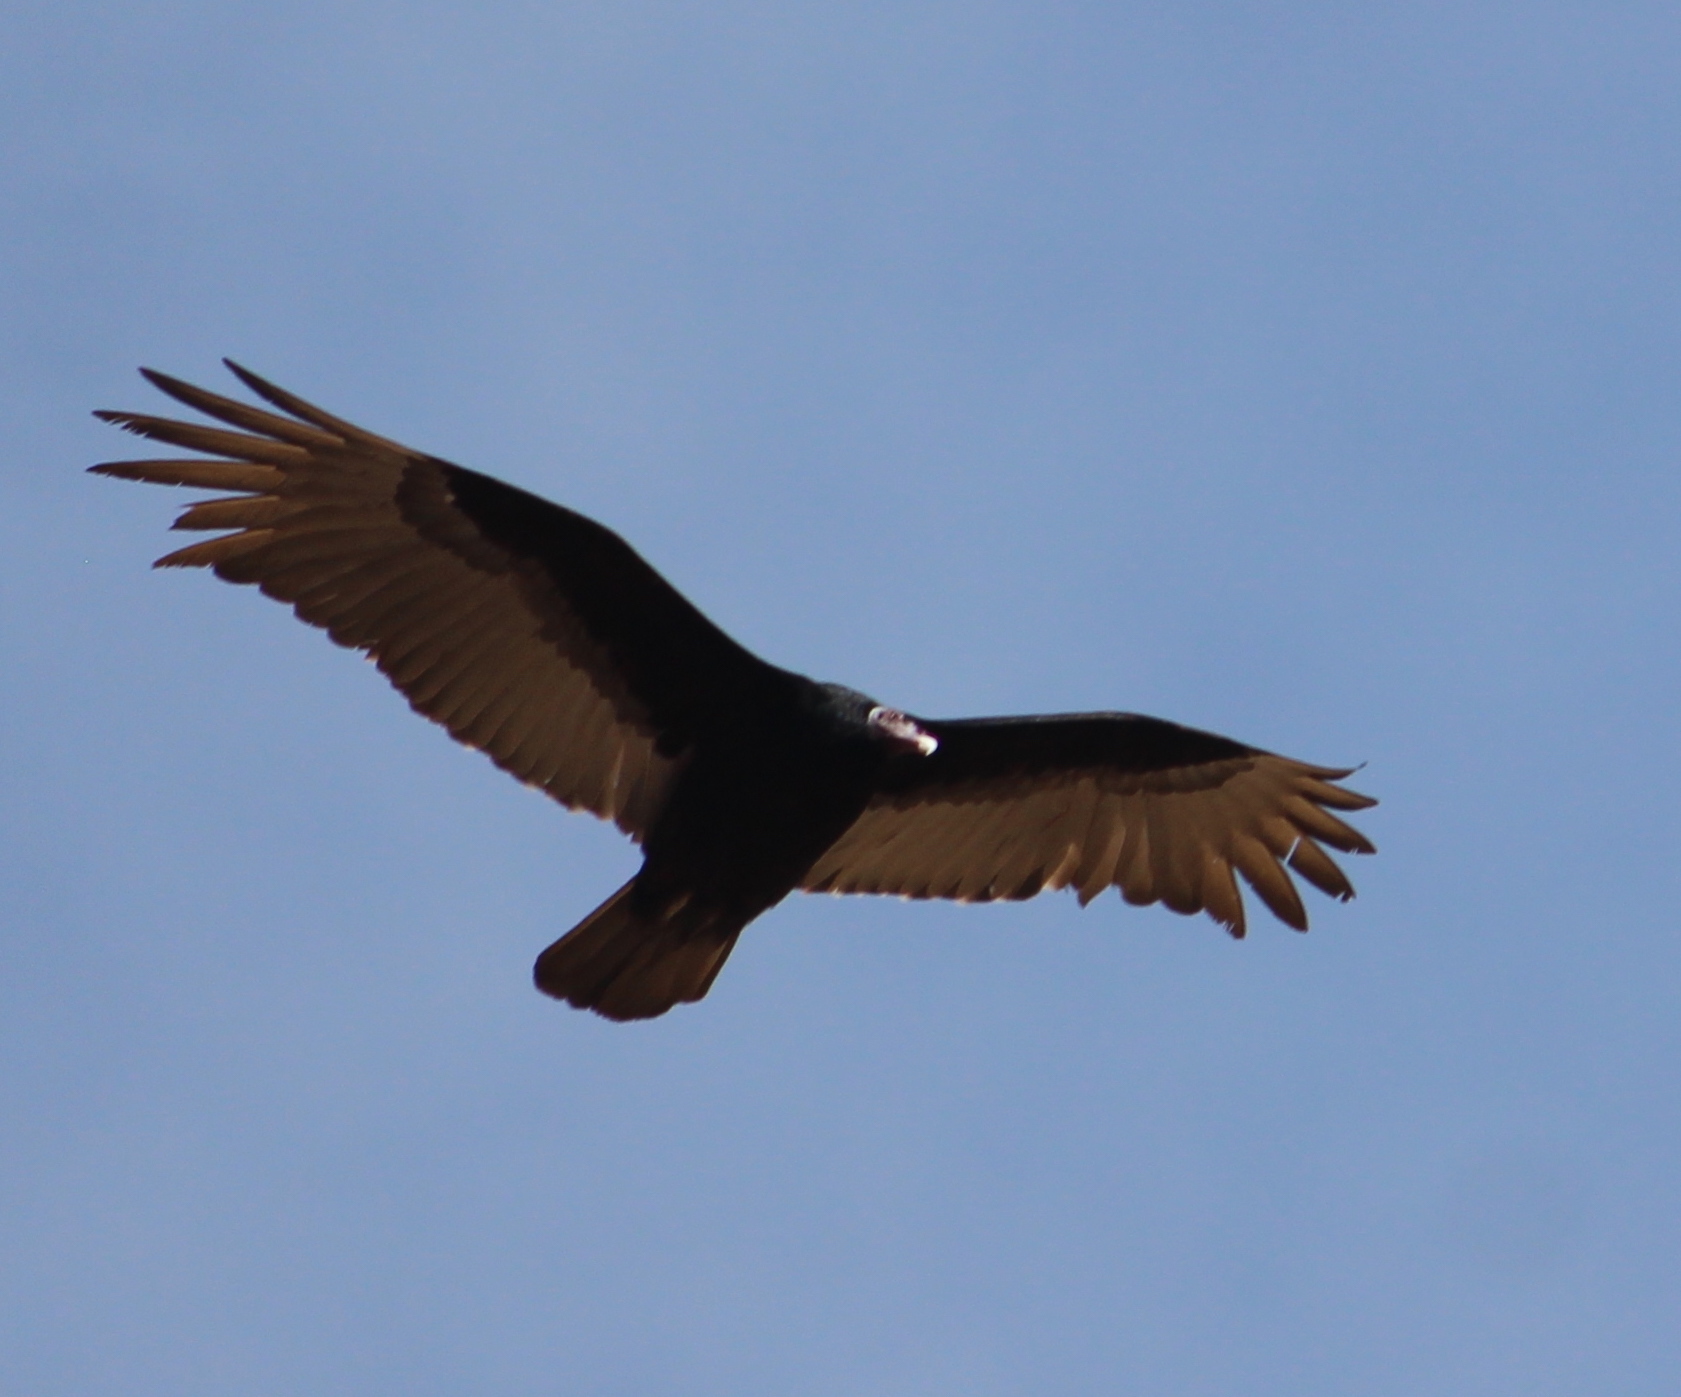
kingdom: Animalia
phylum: Chordata
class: Aves
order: Accipitriformes
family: Cathartidae
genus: Cathartes
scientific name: Cathartes aura
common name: Turkey vulture
